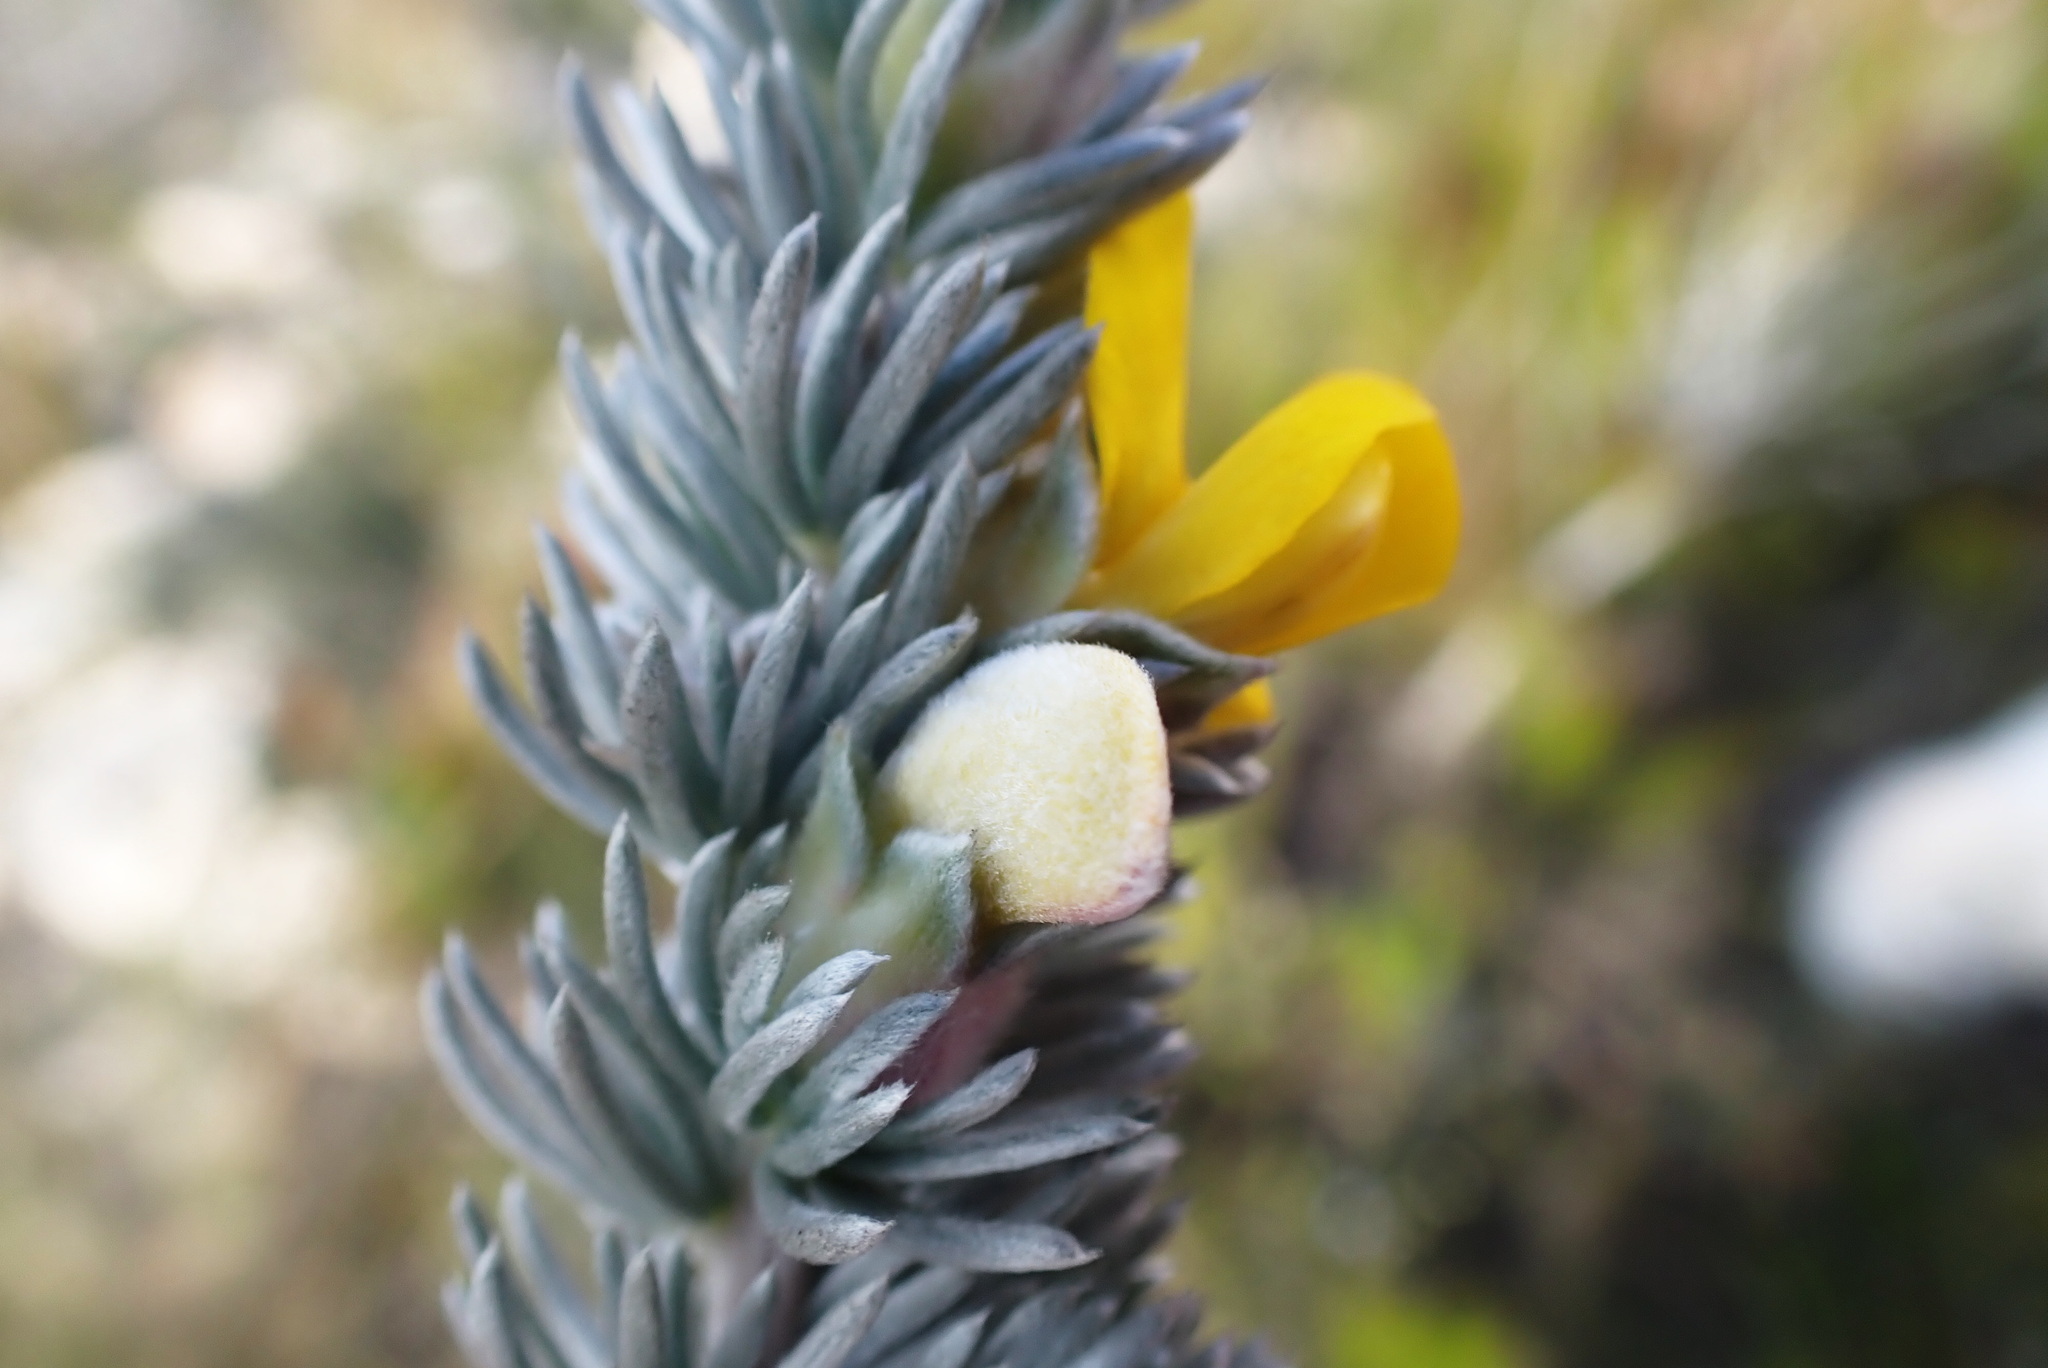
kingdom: Plantae
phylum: Tracheophyta
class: Magnoliopsida
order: Fabales
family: Fabaceae
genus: Aspalathus
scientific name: Aspalathus nickhelmei
